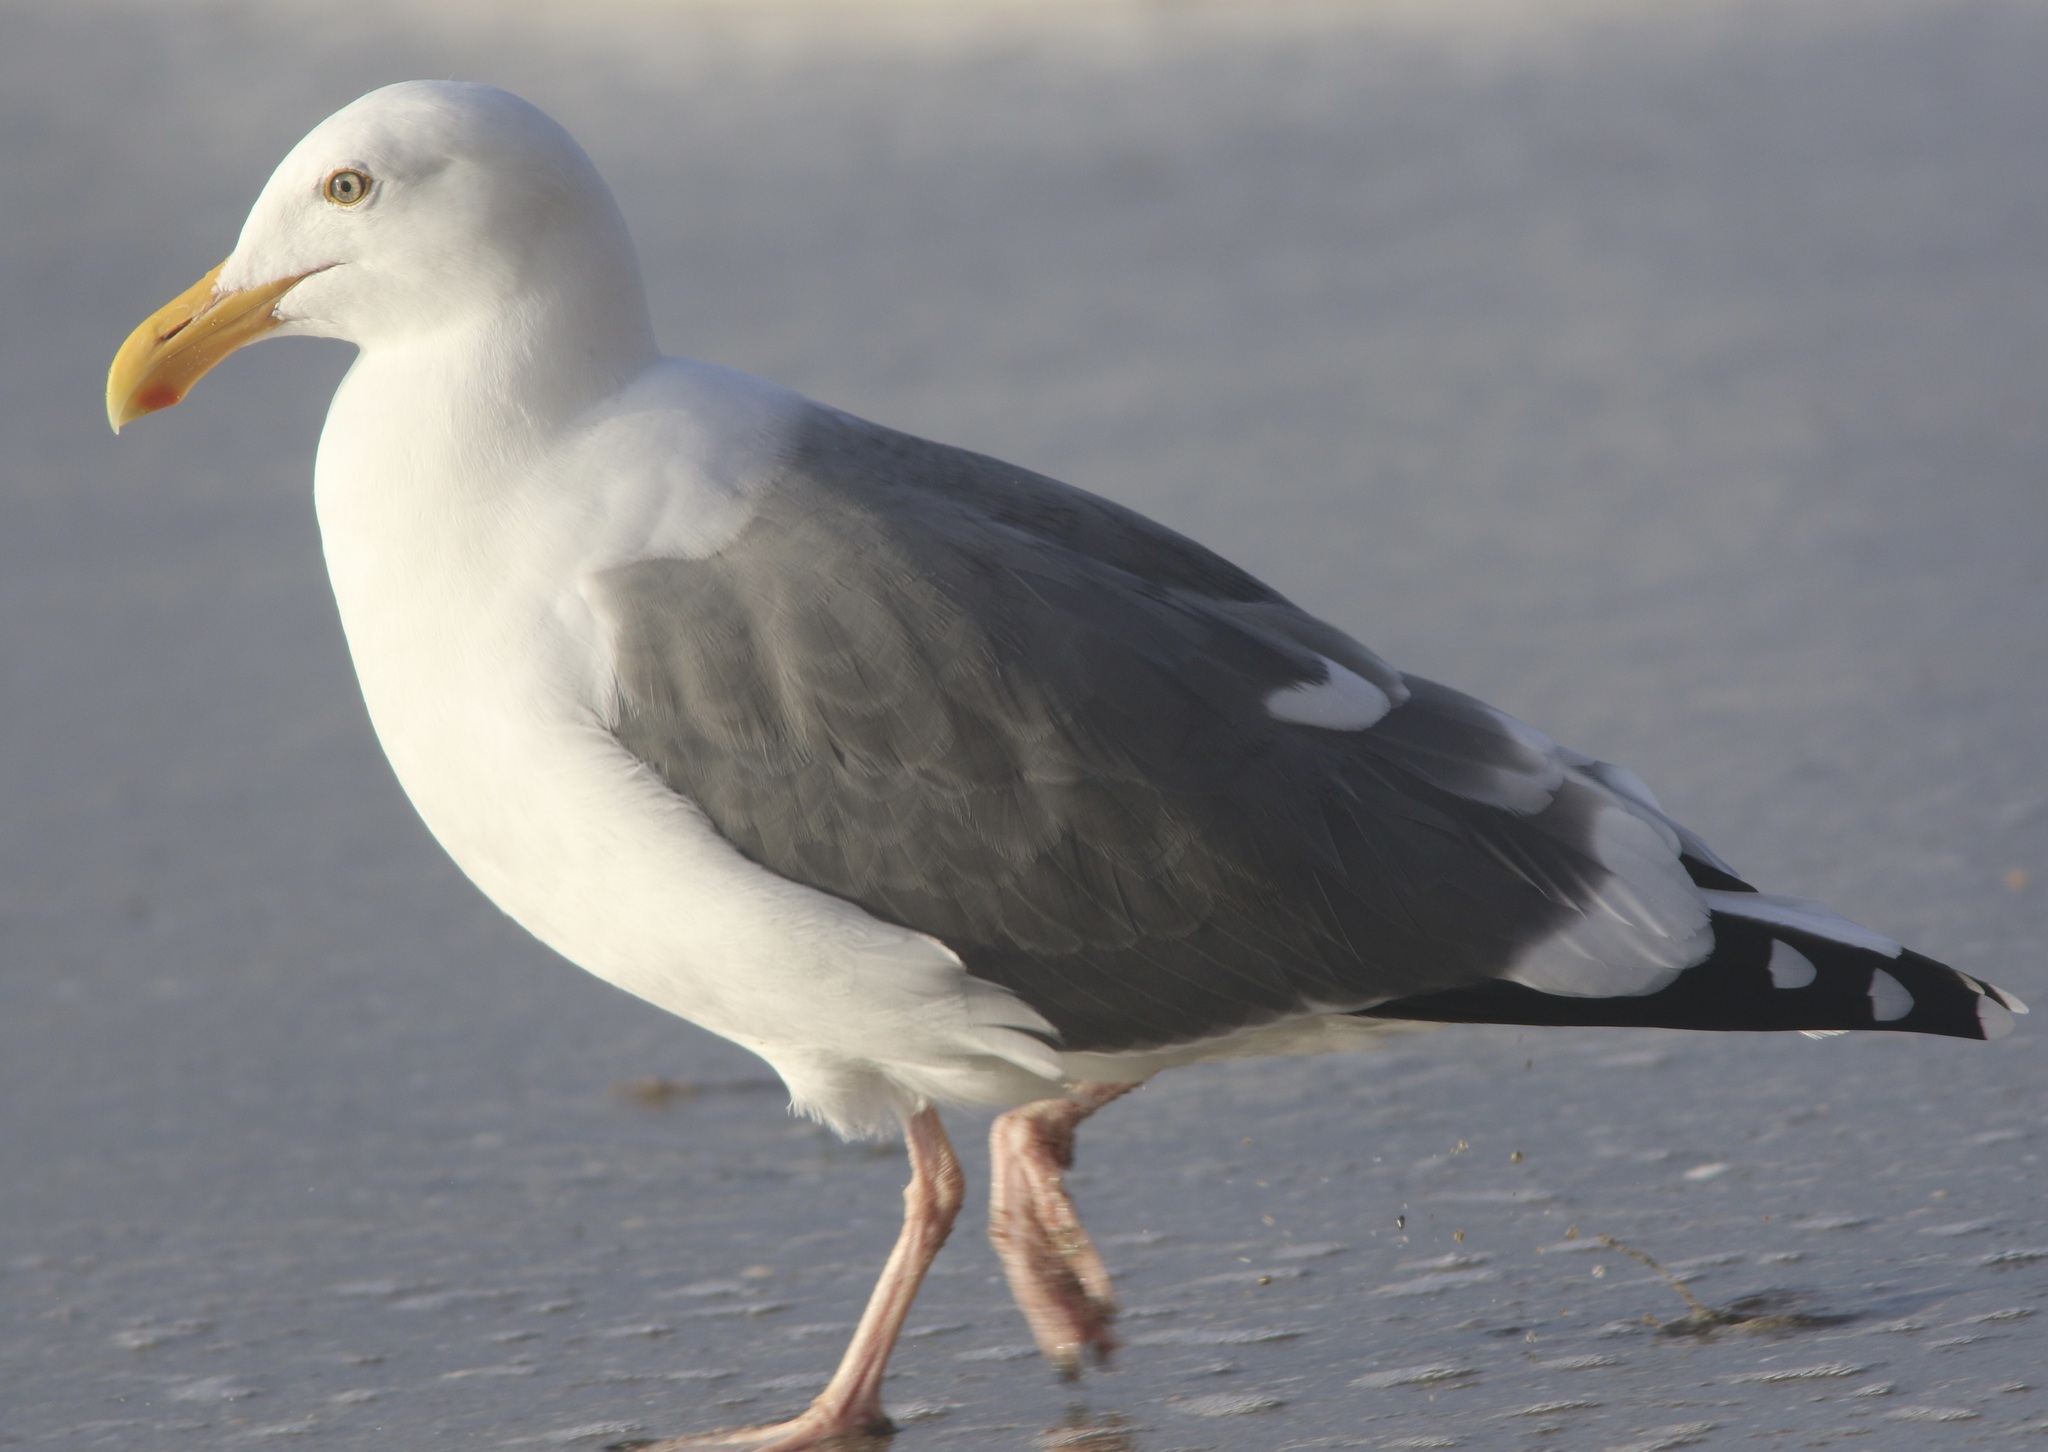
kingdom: Animalia
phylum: Chordata
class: Aves
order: Charadriiformes
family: Laridae
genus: Larus
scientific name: Larus occidentalis
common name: Western gull
